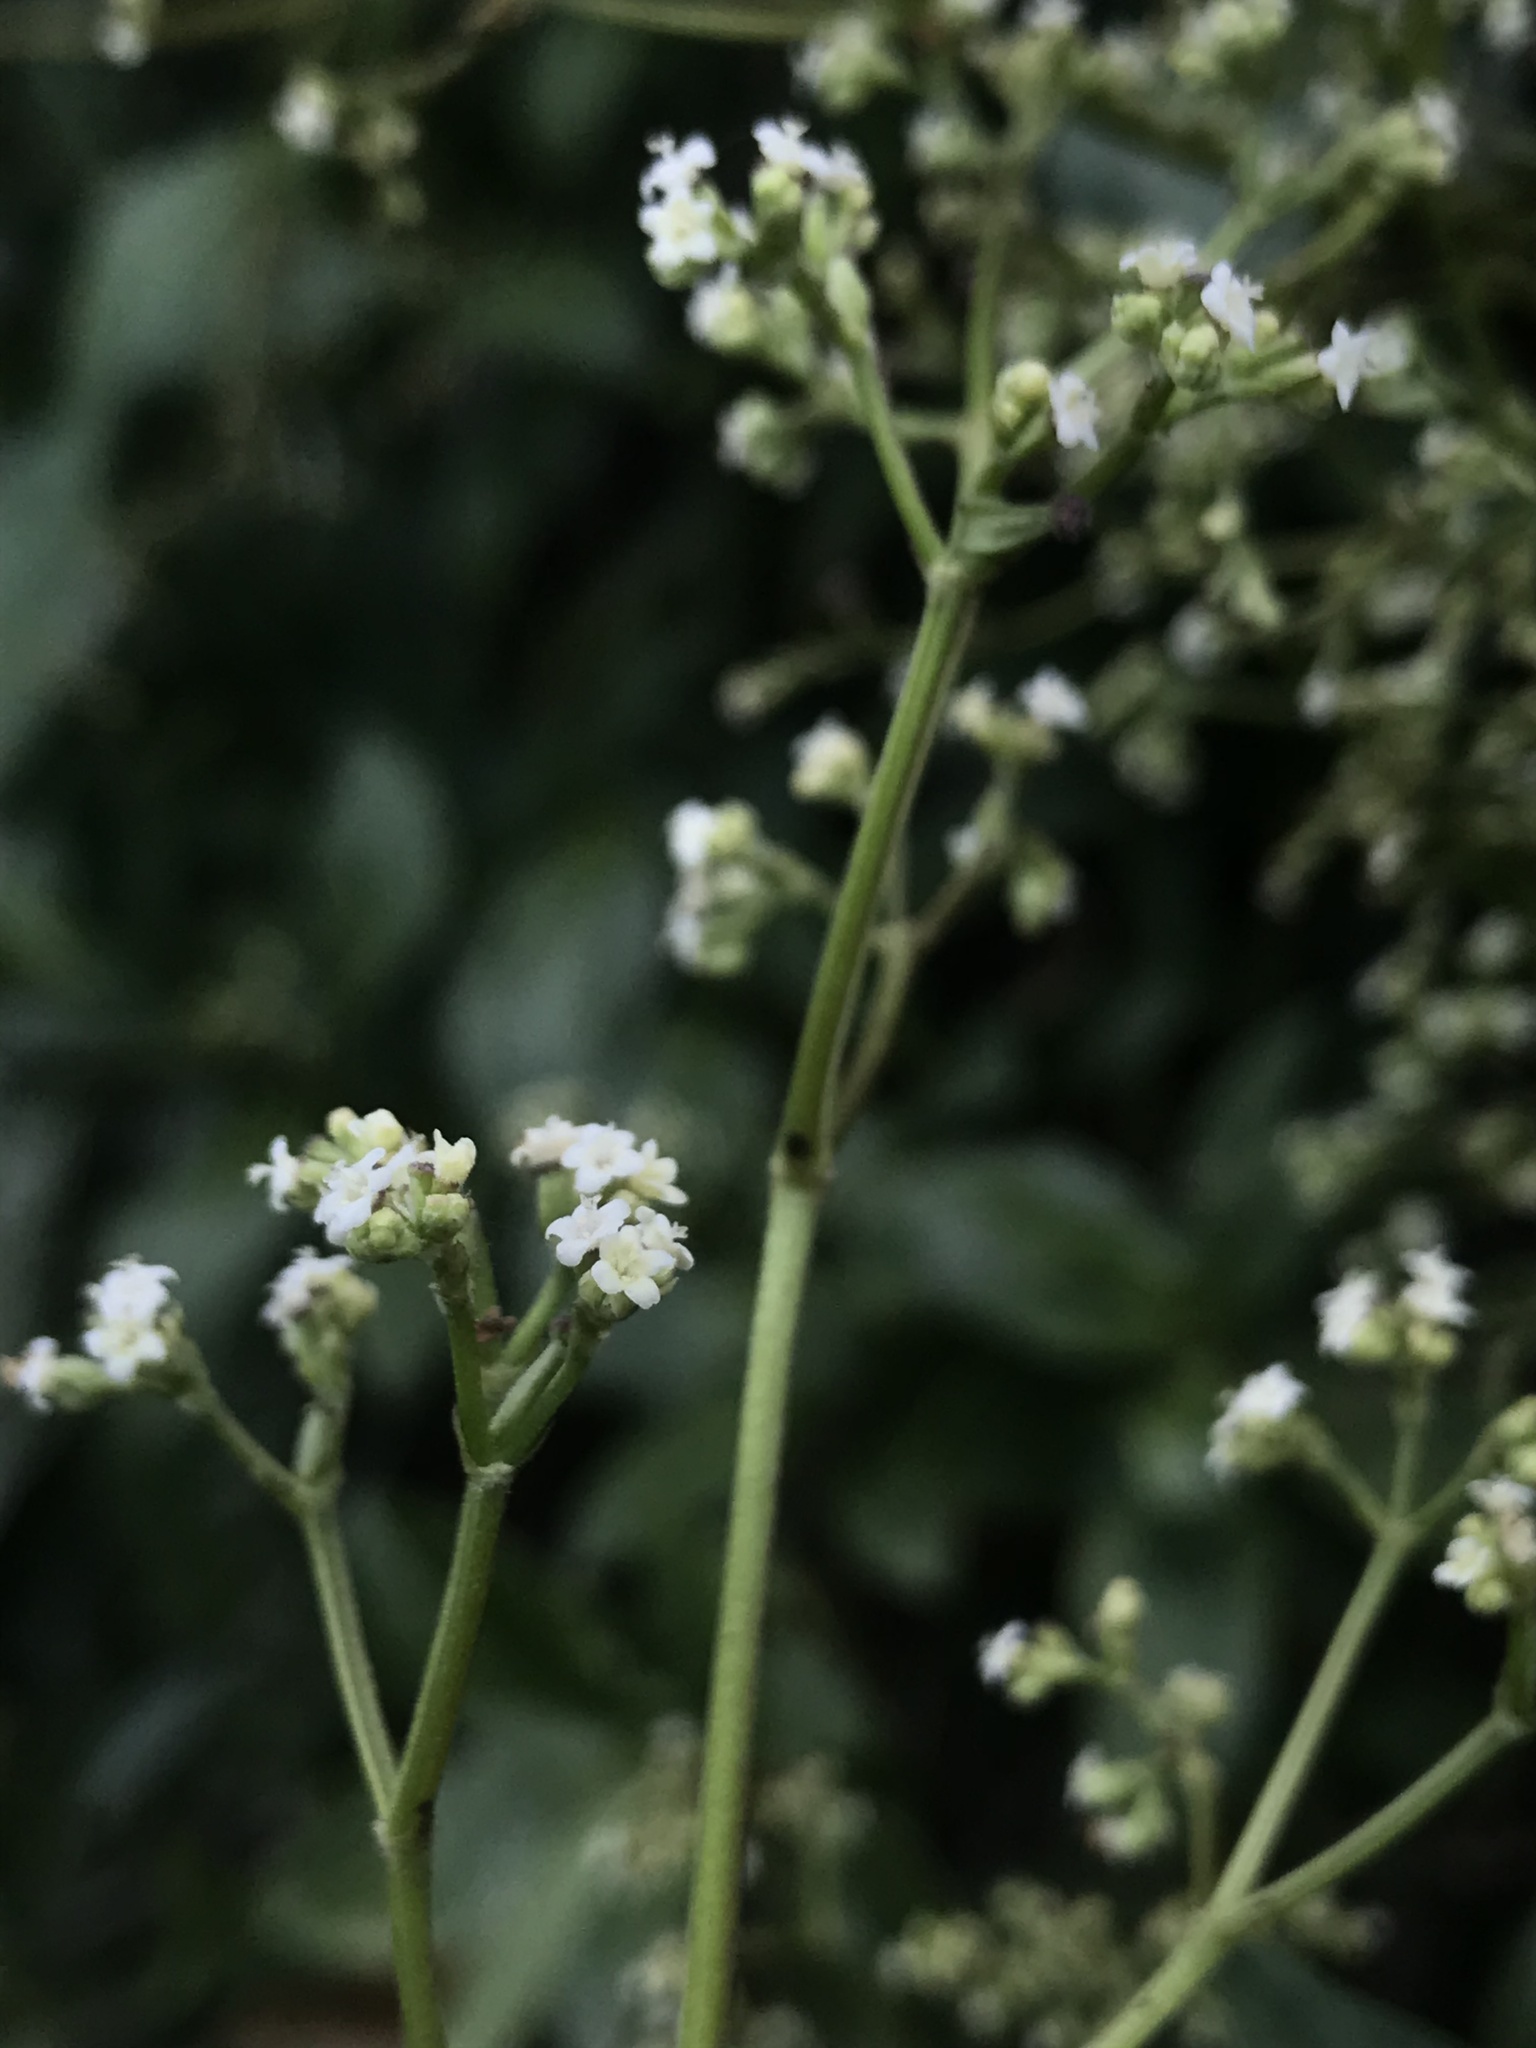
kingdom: Plantae
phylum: Tracheophyta
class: Magnoliopsida
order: Dipsacales
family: Caprifoliaceae
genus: Valeriana
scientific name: Valeriana clematitis
